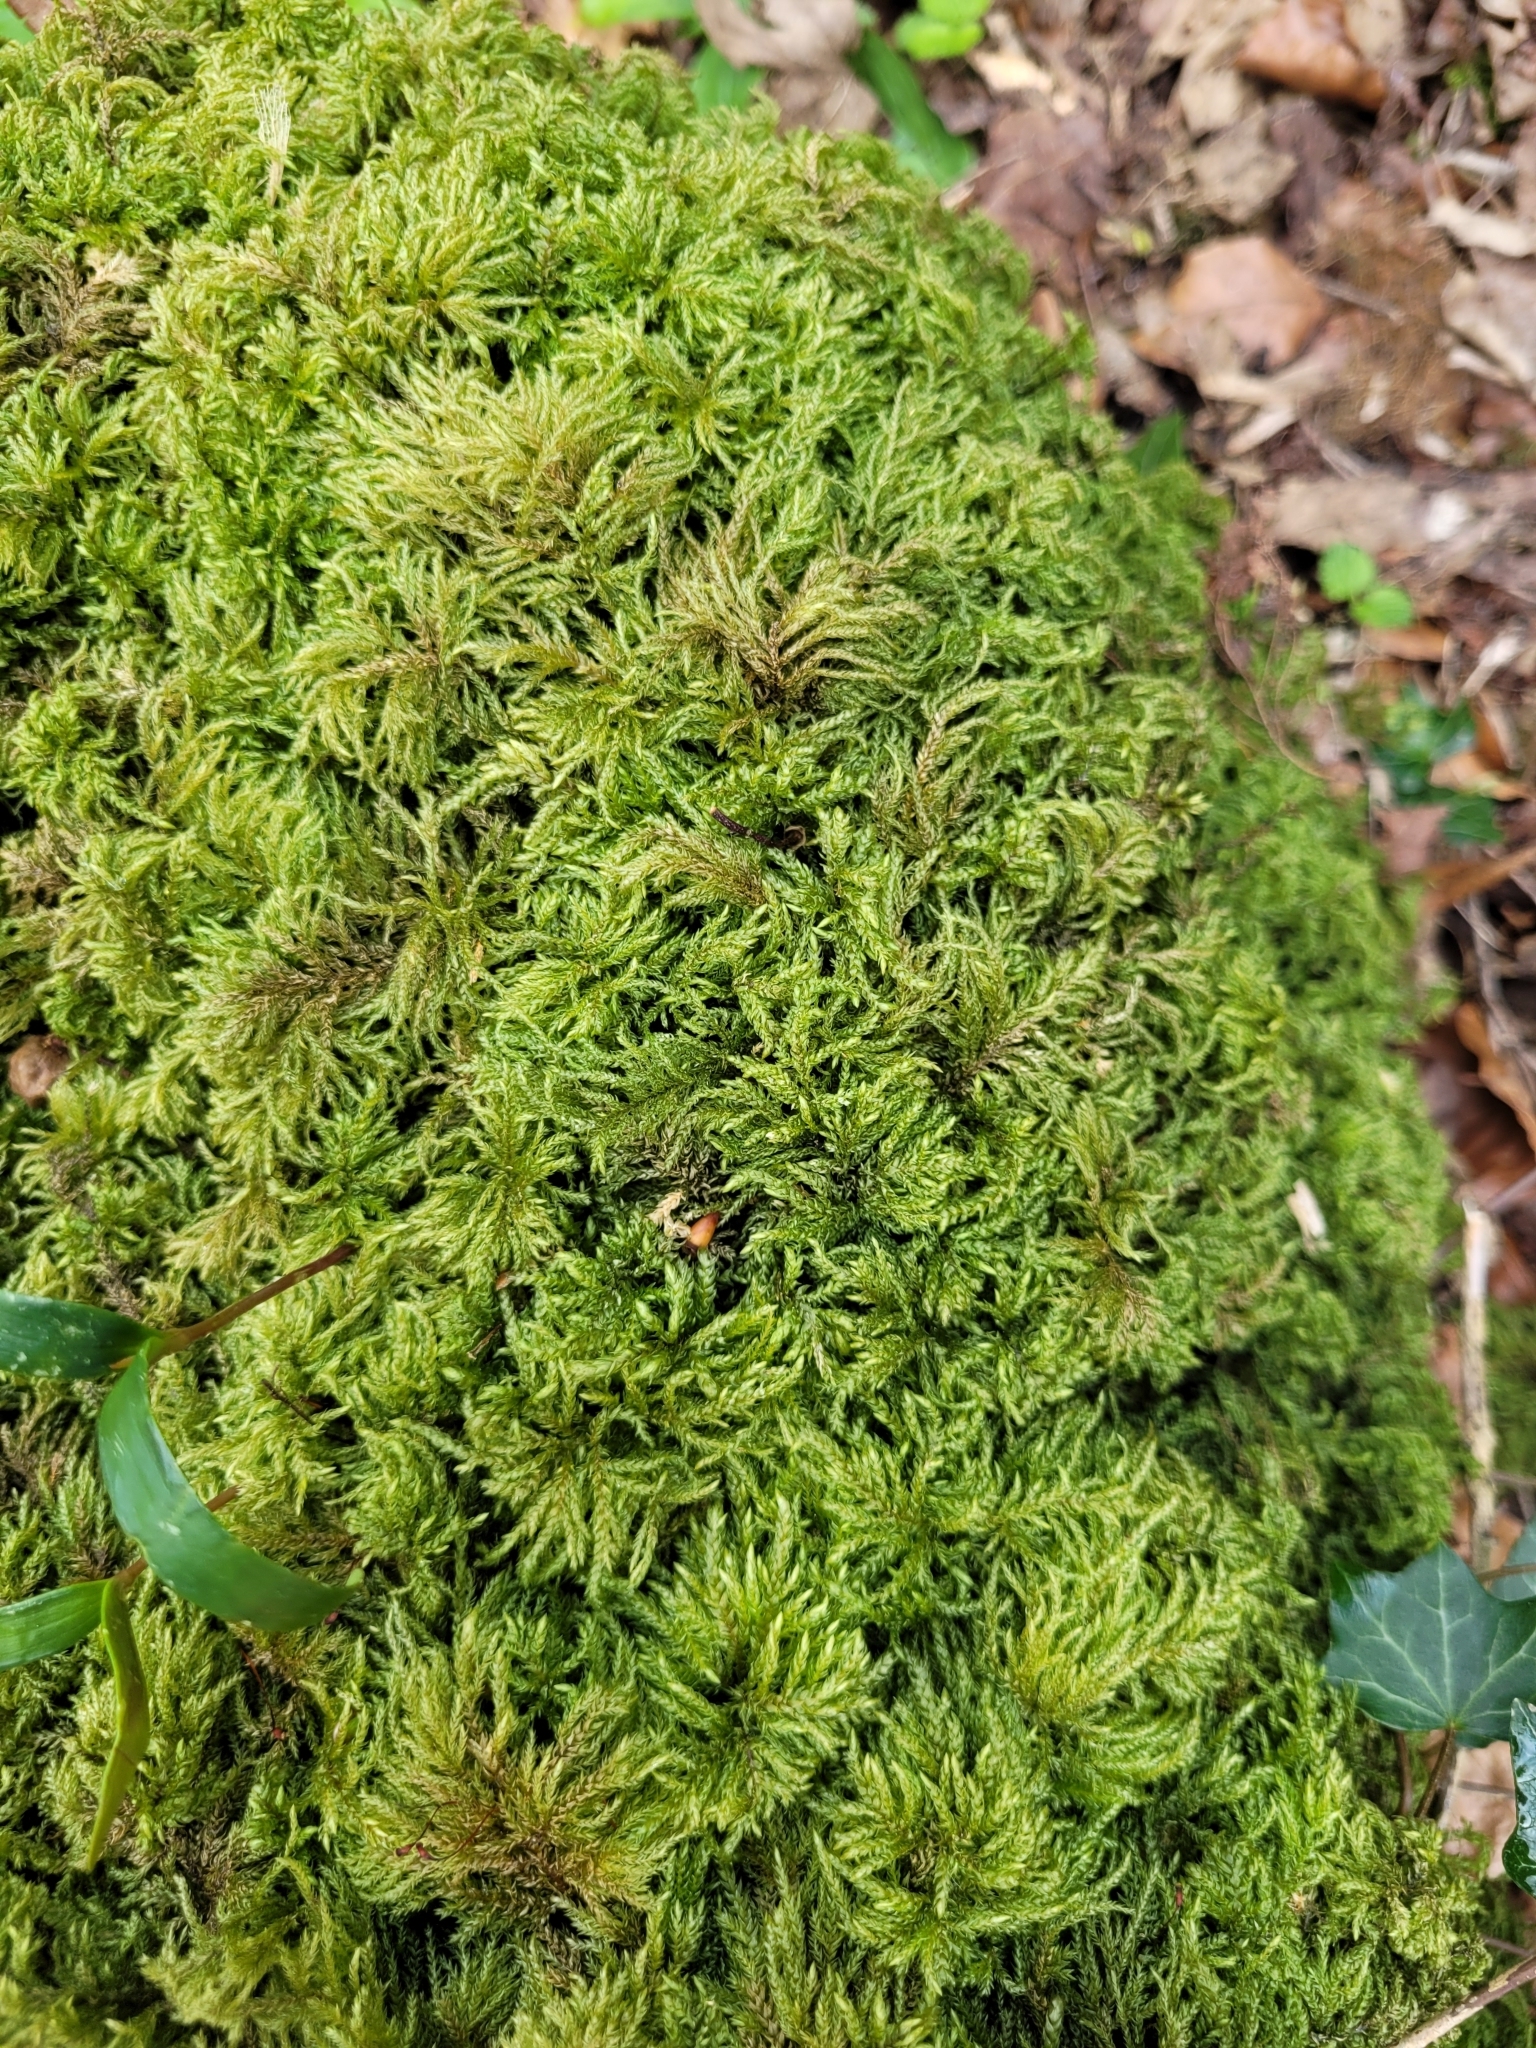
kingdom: Plantae
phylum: Bryophyta
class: Bryopsida
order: Hypnales
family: Neckeraceae
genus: Thamnobryum
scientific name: Thamnobryum alopecurum
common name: Fox-tail feather-moss
